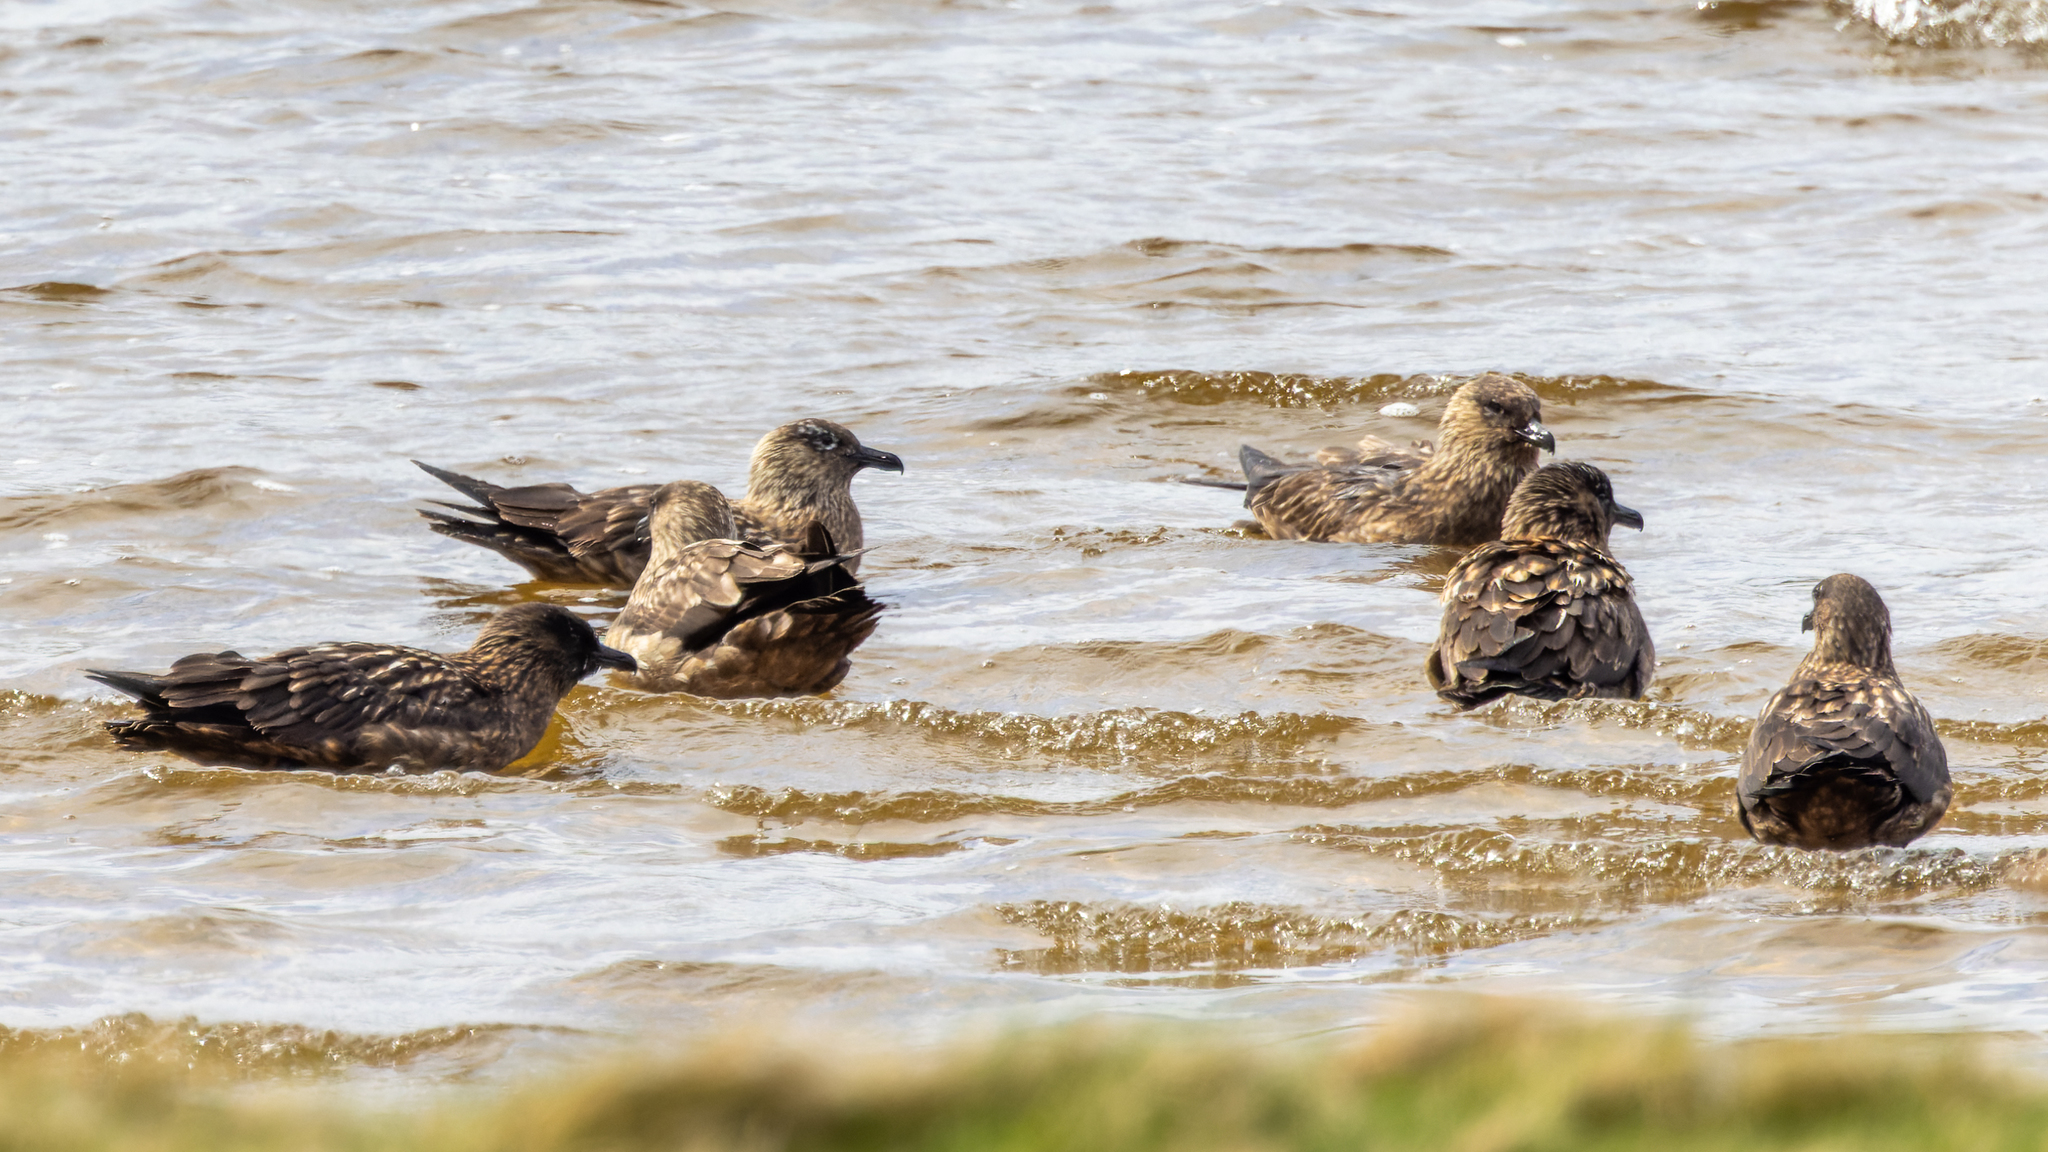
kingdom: Animalia
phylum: Chordata
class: Aves
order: Charadriiformes
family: Stercorariidae
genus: Stercorarius
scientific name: Stercorarius skua
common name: Great skua
